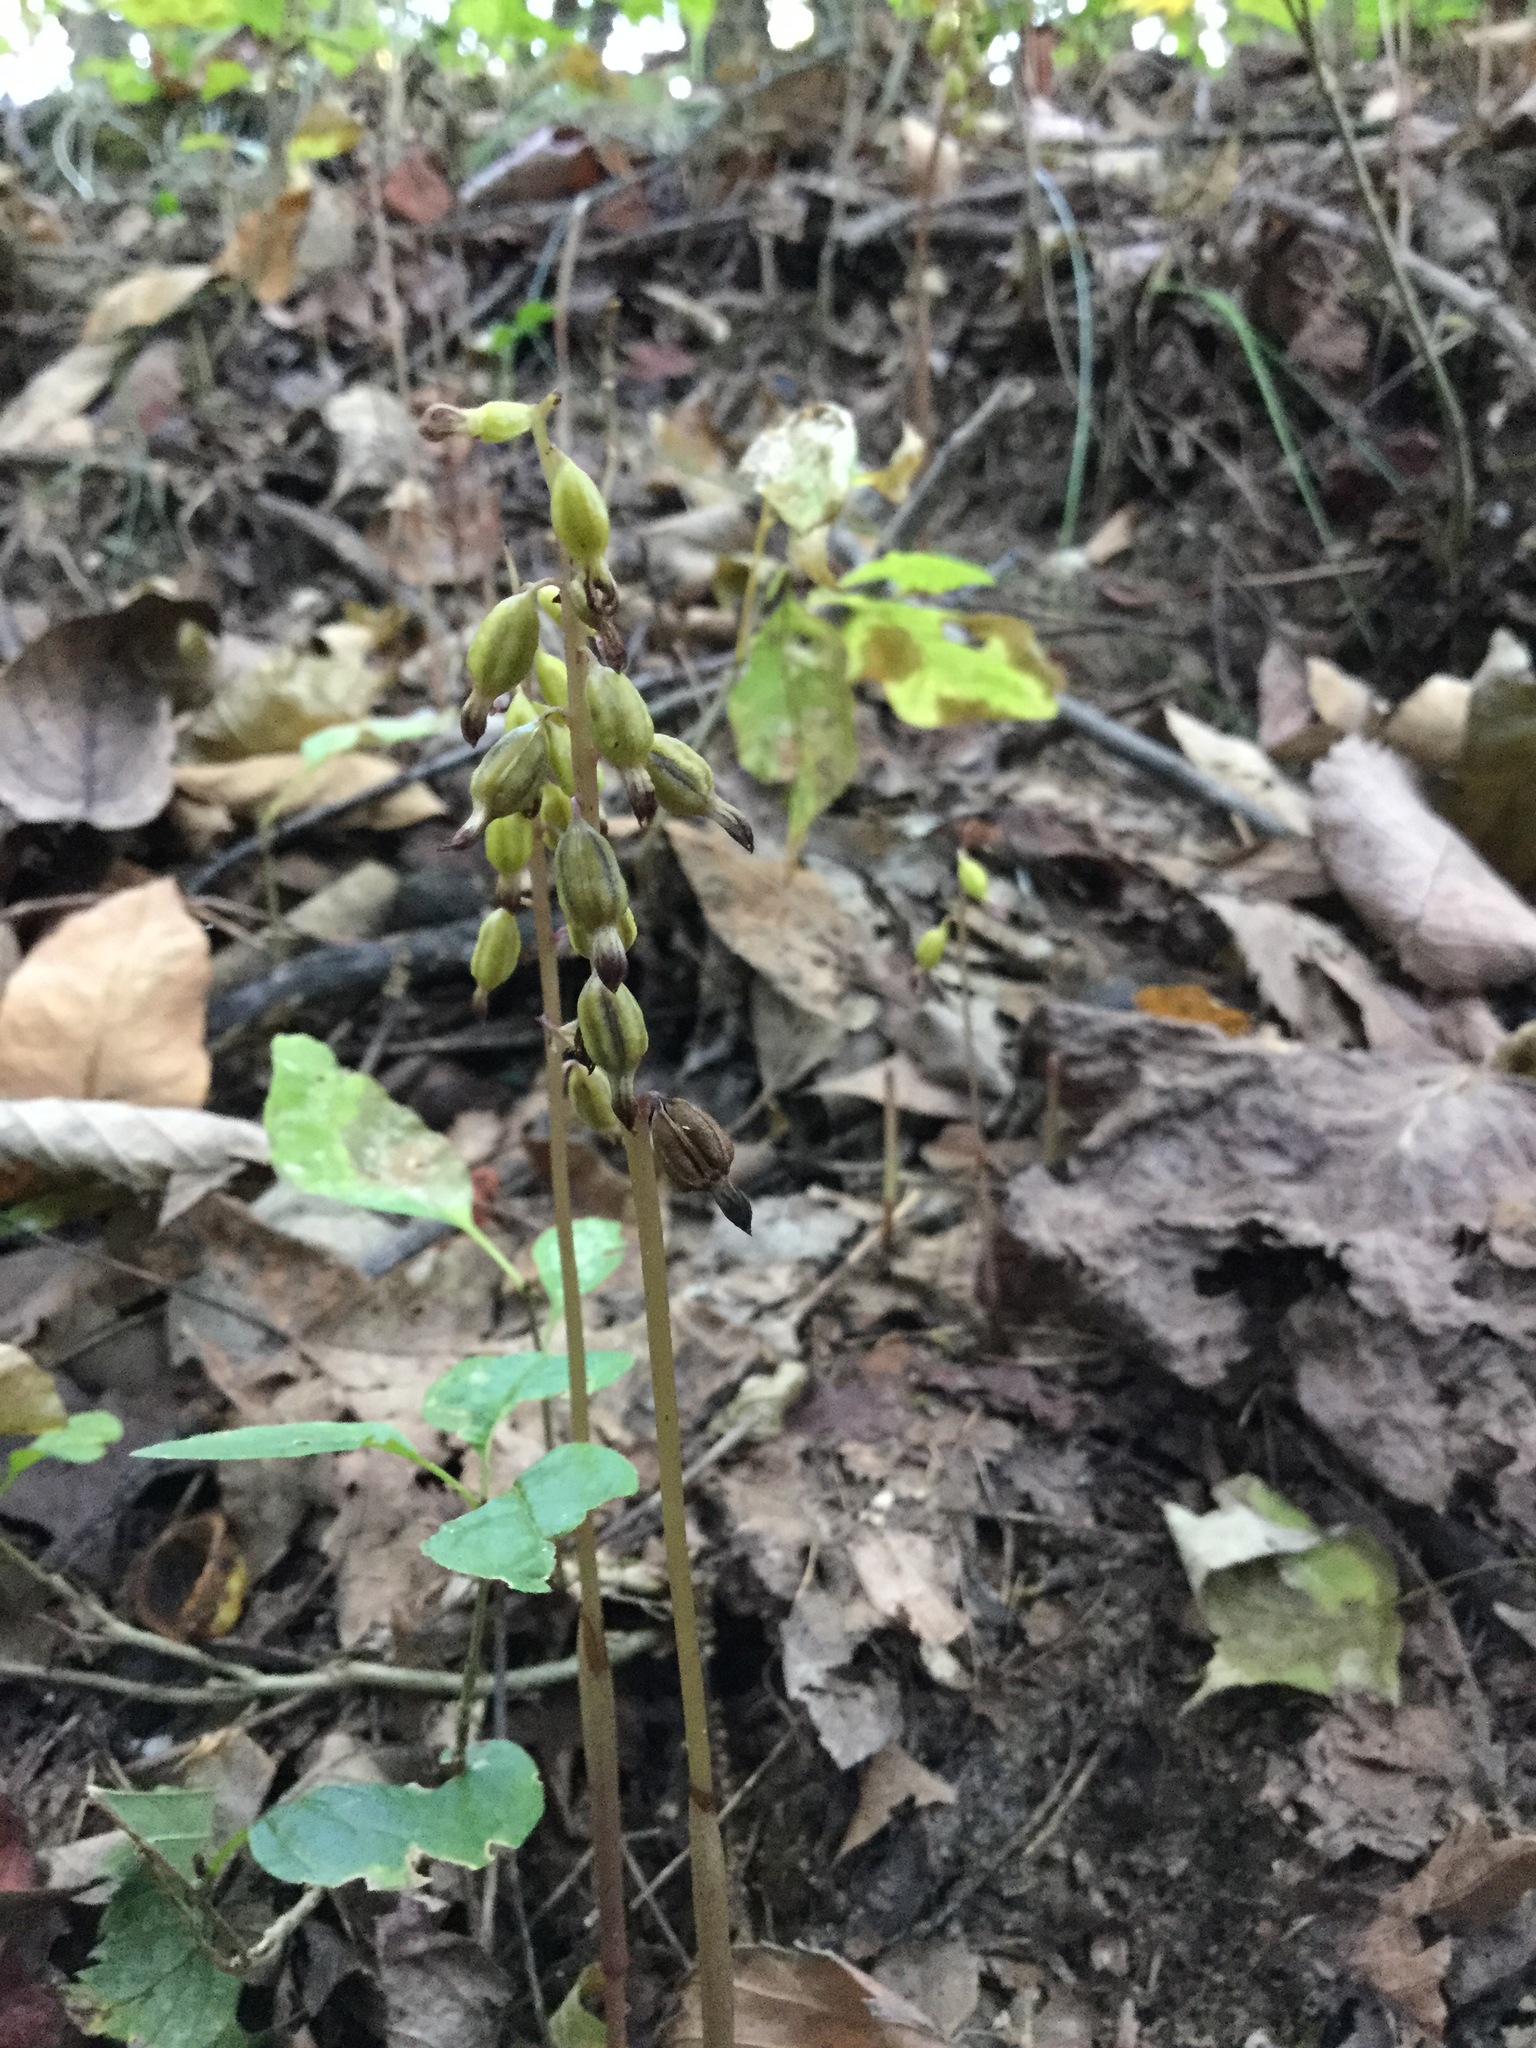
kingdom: Plantae
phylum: Tracheophyta
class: Liliopsida
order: Asparagales
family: Orchidaceae
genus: Corallorhiza
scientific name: Corallorhiza odontorhiza
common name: Autumn coralroot
